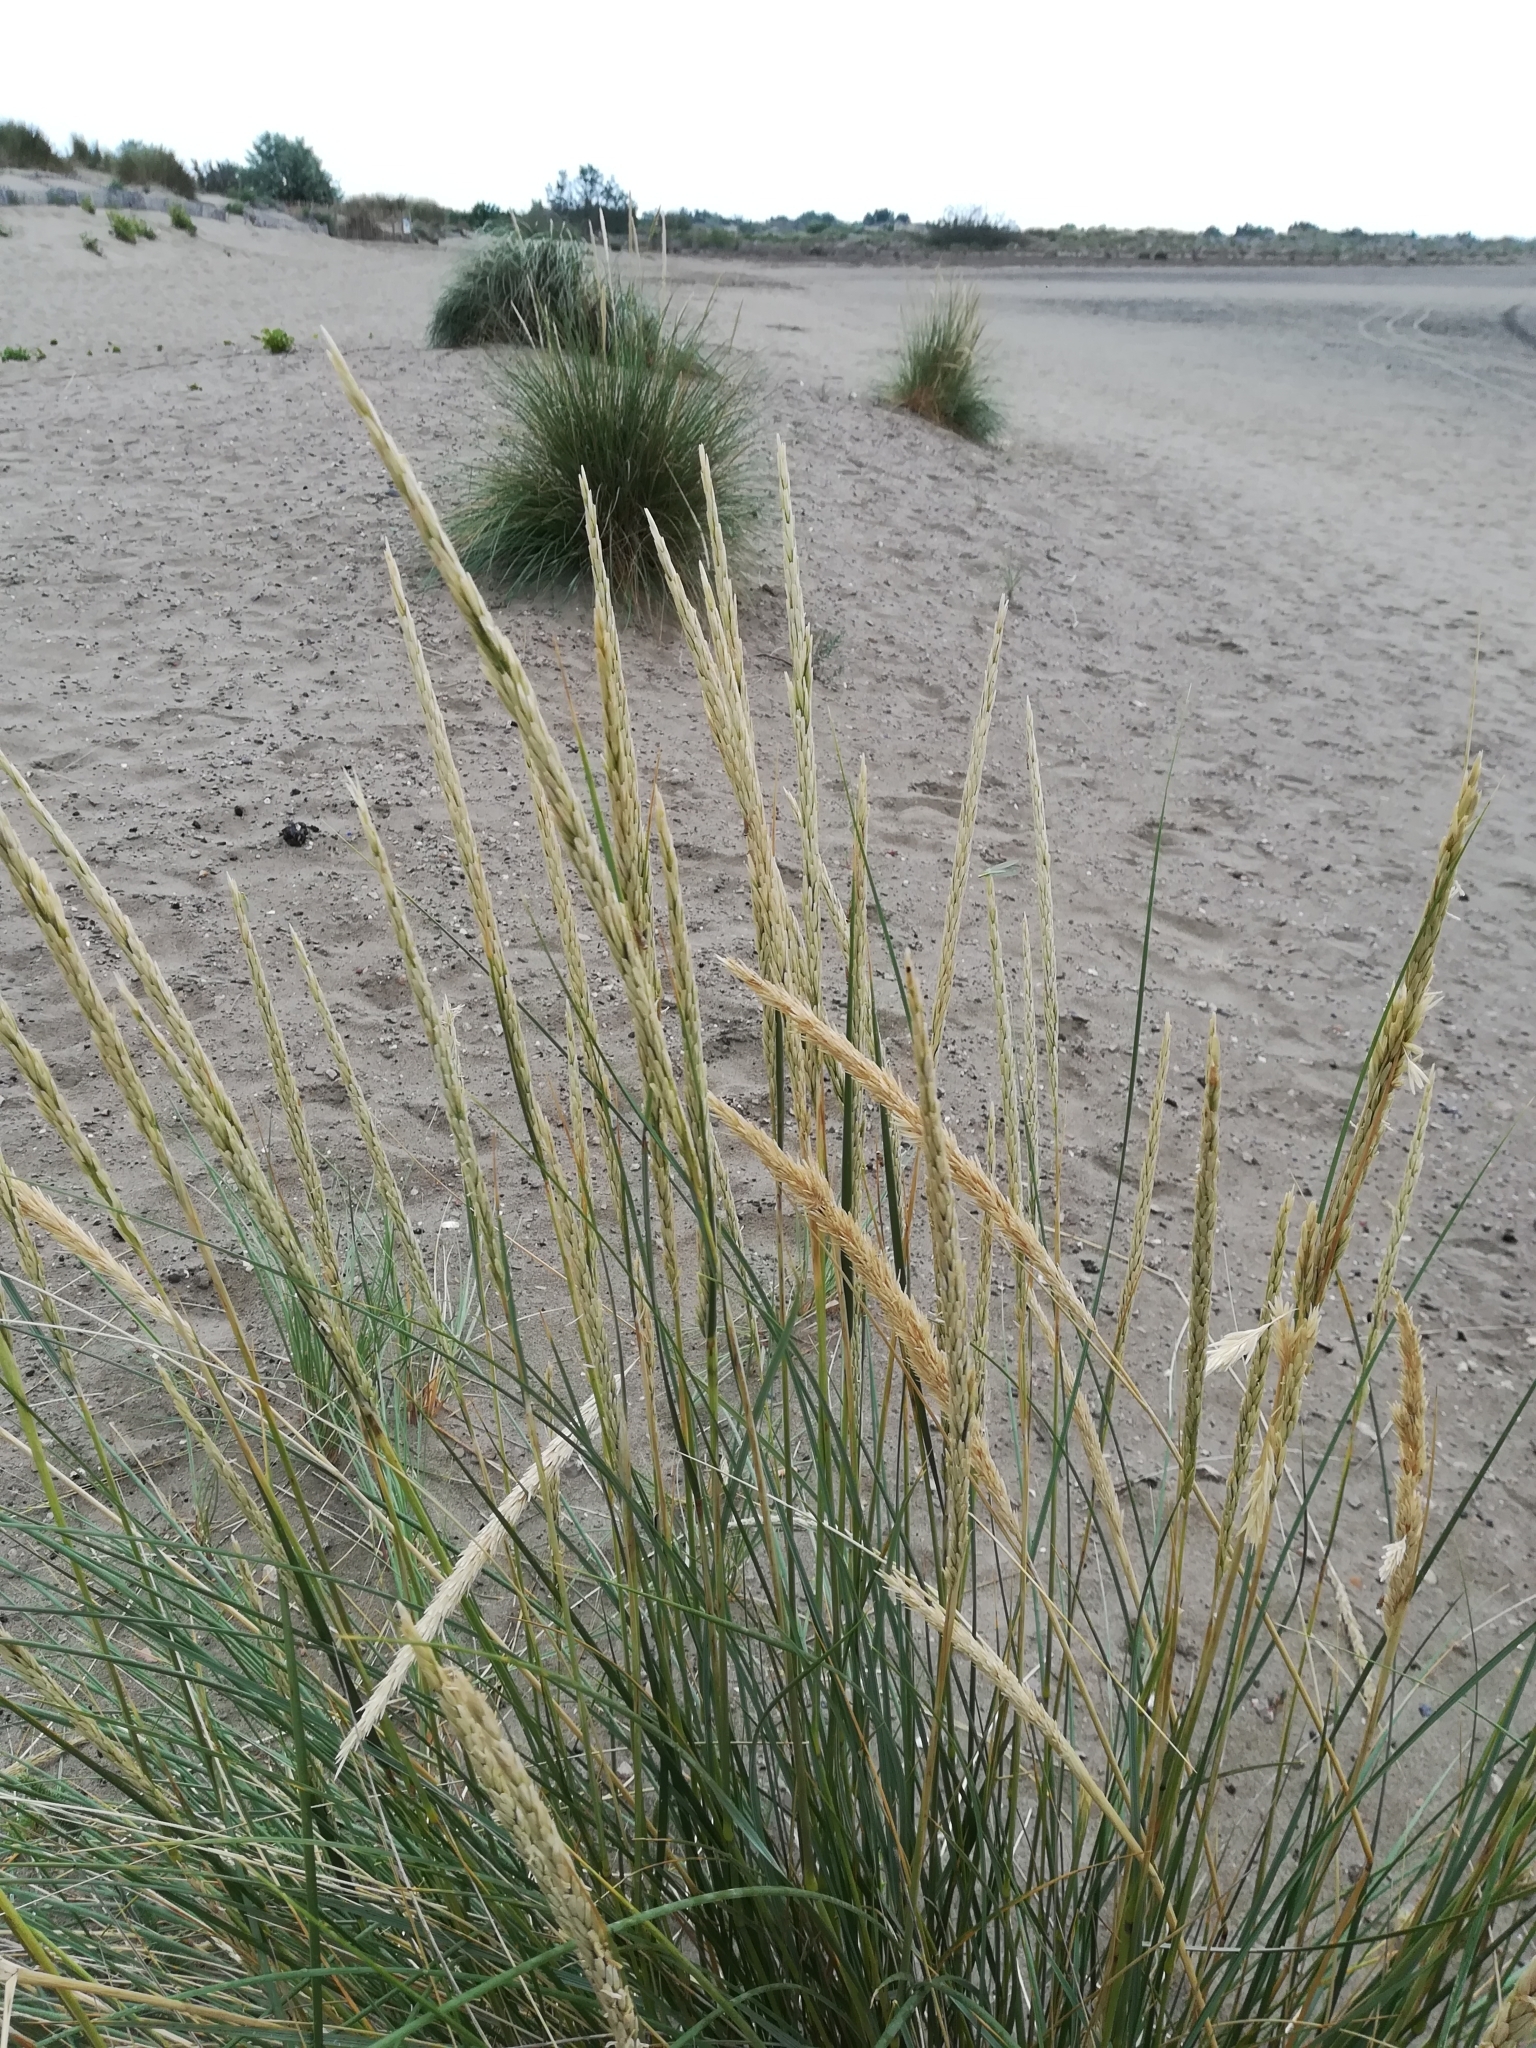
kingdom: Plantae
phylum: Tracheophyta
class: Liliopsida
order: Poales
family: Poaceae
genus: Calamagrostis
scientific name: Calamagrostis arenaria
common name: European beachgrass
